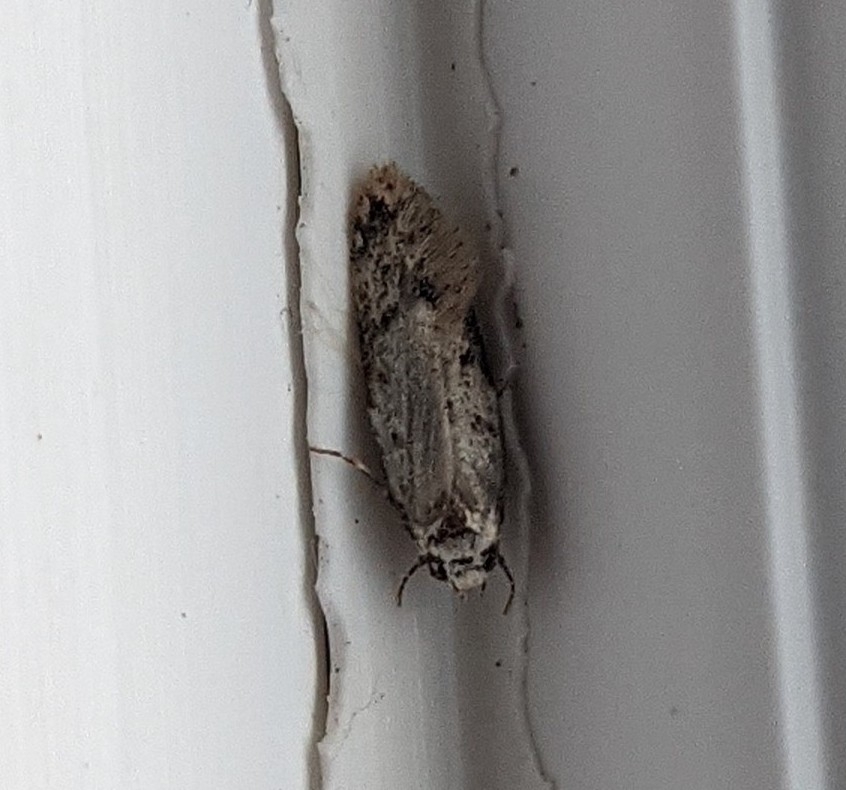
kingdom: Animalia
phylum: Arthropoda
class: Insecta
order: Lepidoptera
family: Oecophoridae
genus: Endrosis
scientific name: Endrosis sarcitrella
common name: White-shouldered house moth
